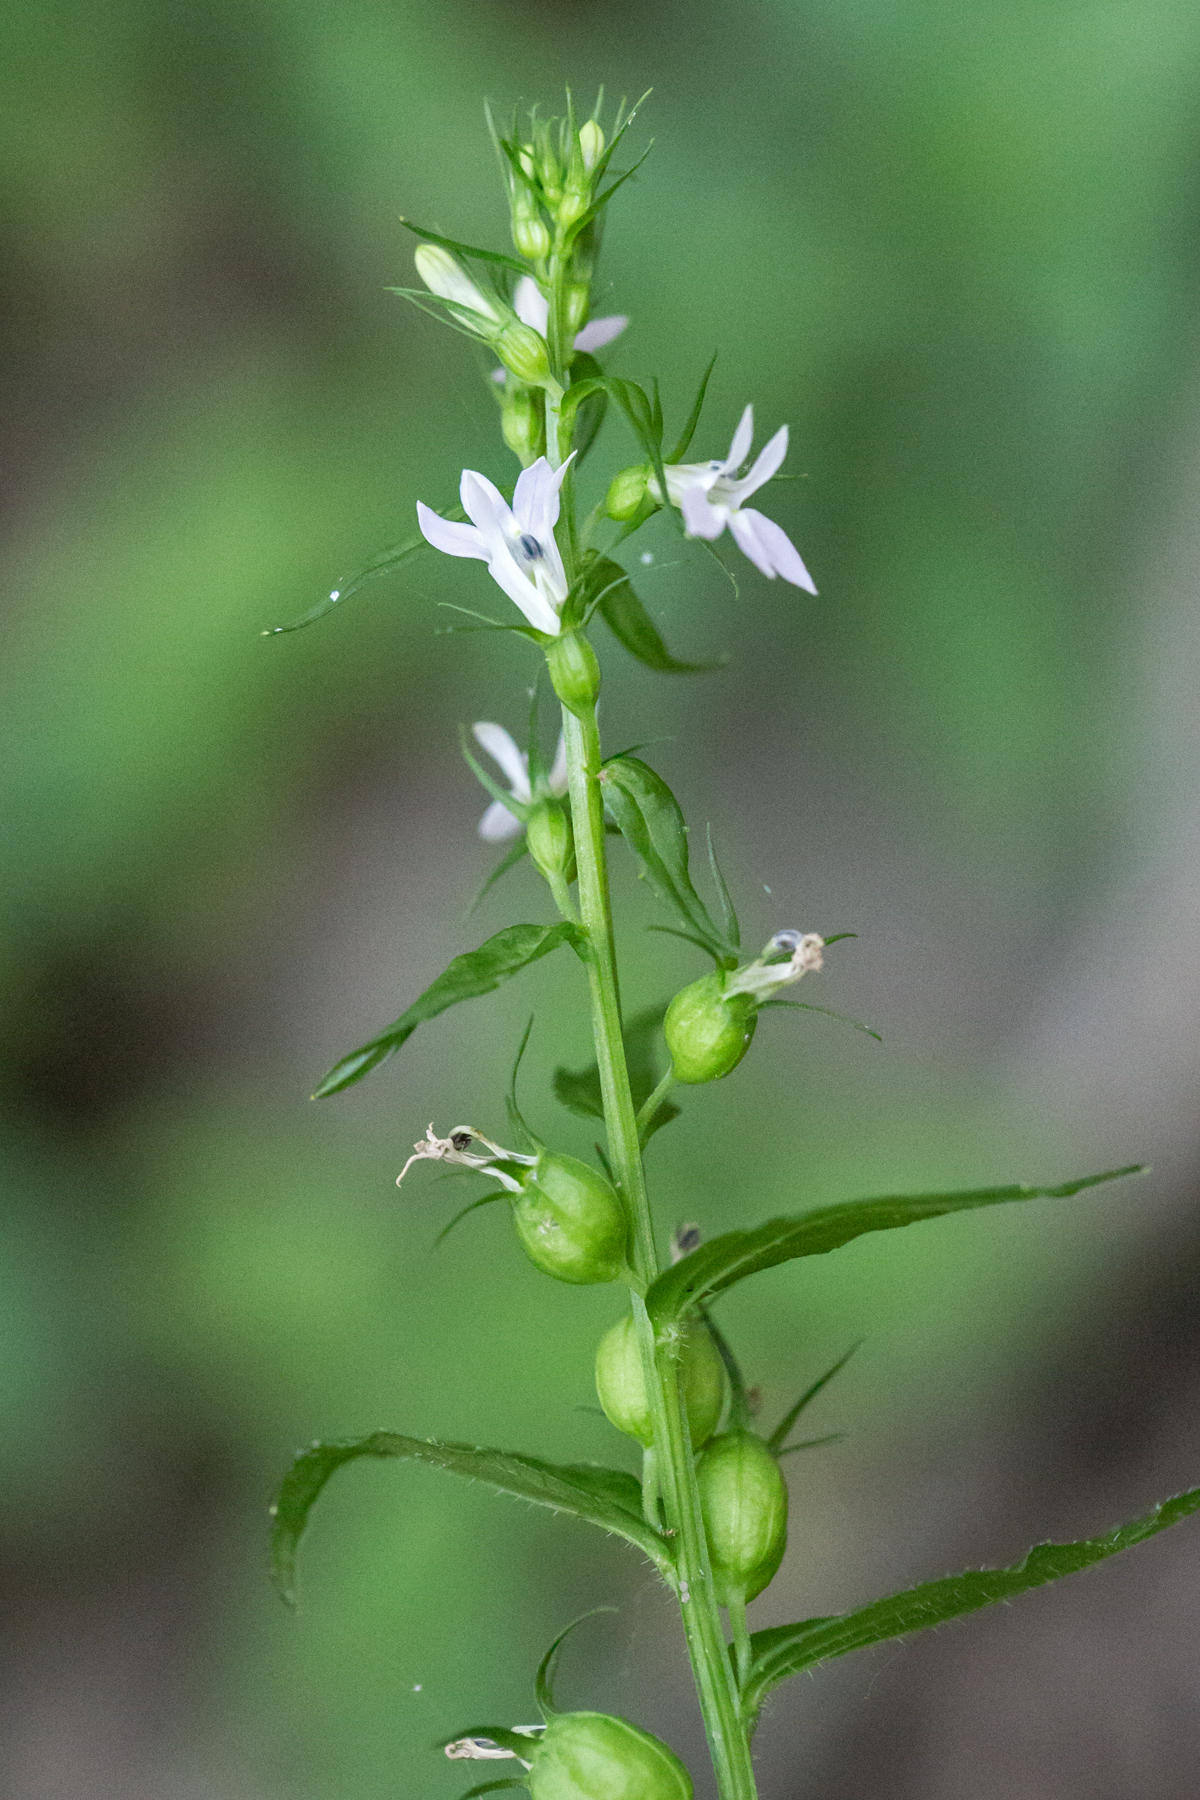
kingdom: Plantae
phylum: Tracheophyta
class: Magnoliopsida
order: Asterales
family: Campanulaceae
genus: Lobelia
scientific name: Lobelia inflata
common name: Indian tobacco
